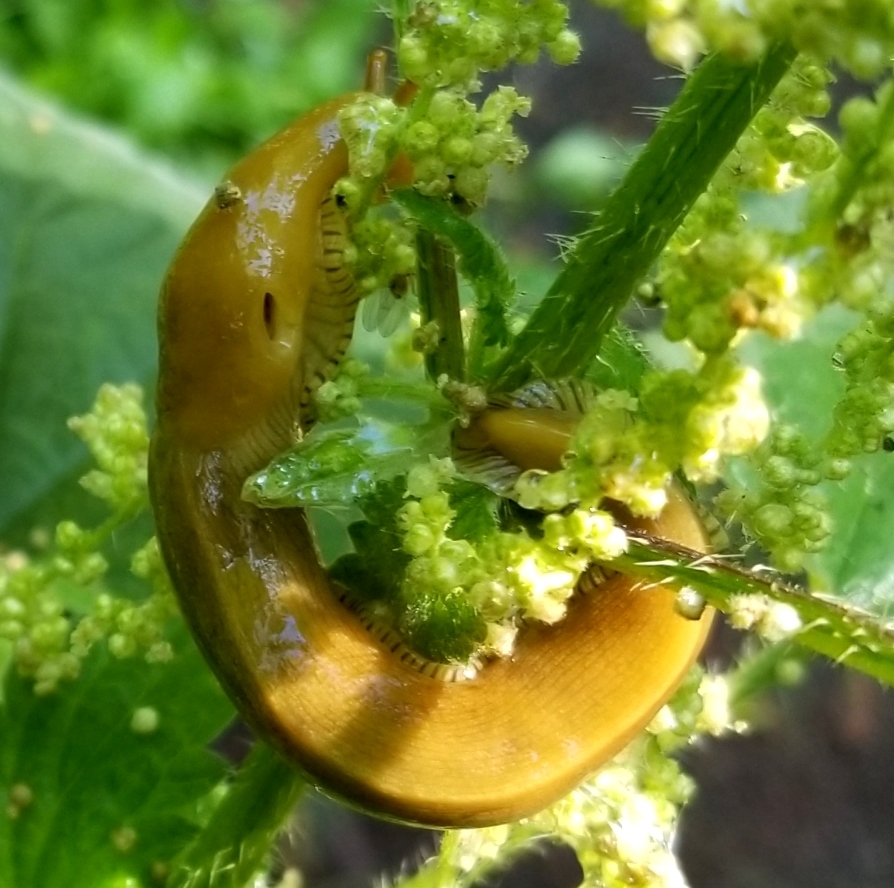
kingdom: Animalia
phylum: Mollusca
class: Gastropoda
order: Stylommatophora
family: Ariolimacidae
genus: Ariolimax
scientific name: Ariolimax buttoni
